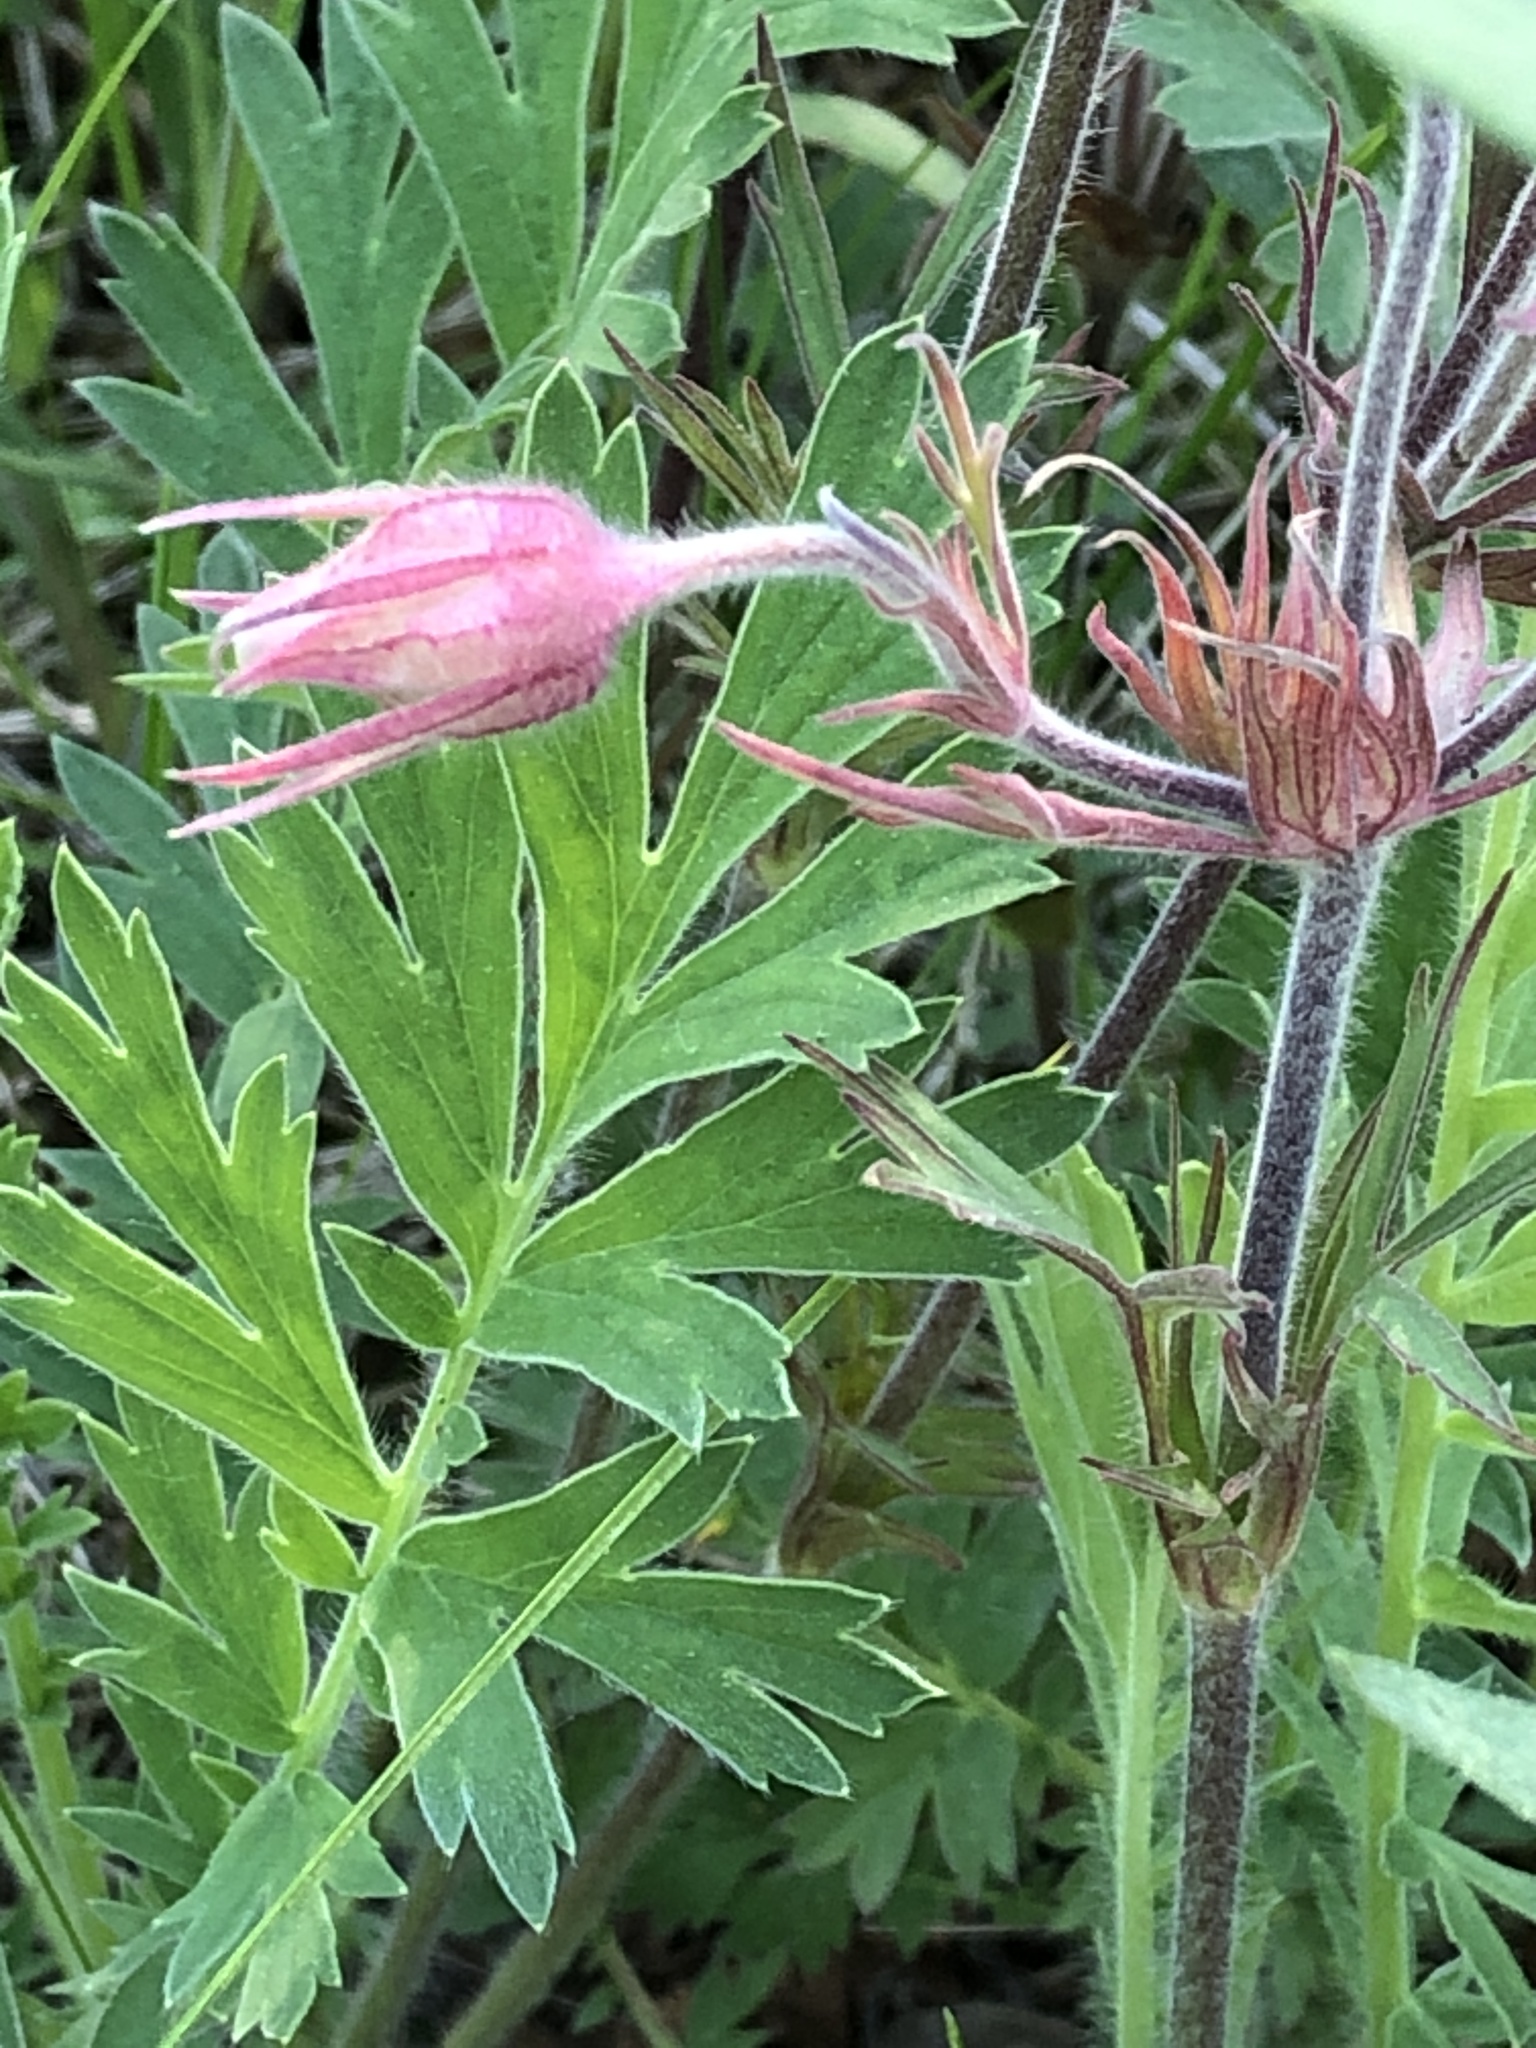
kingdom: Plantae
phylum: Tracheophyta
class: Magnoliopsida
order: Rosales
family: Rosaceae
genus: Geum
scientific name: Geum triflorum
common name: Old man's whiskers
